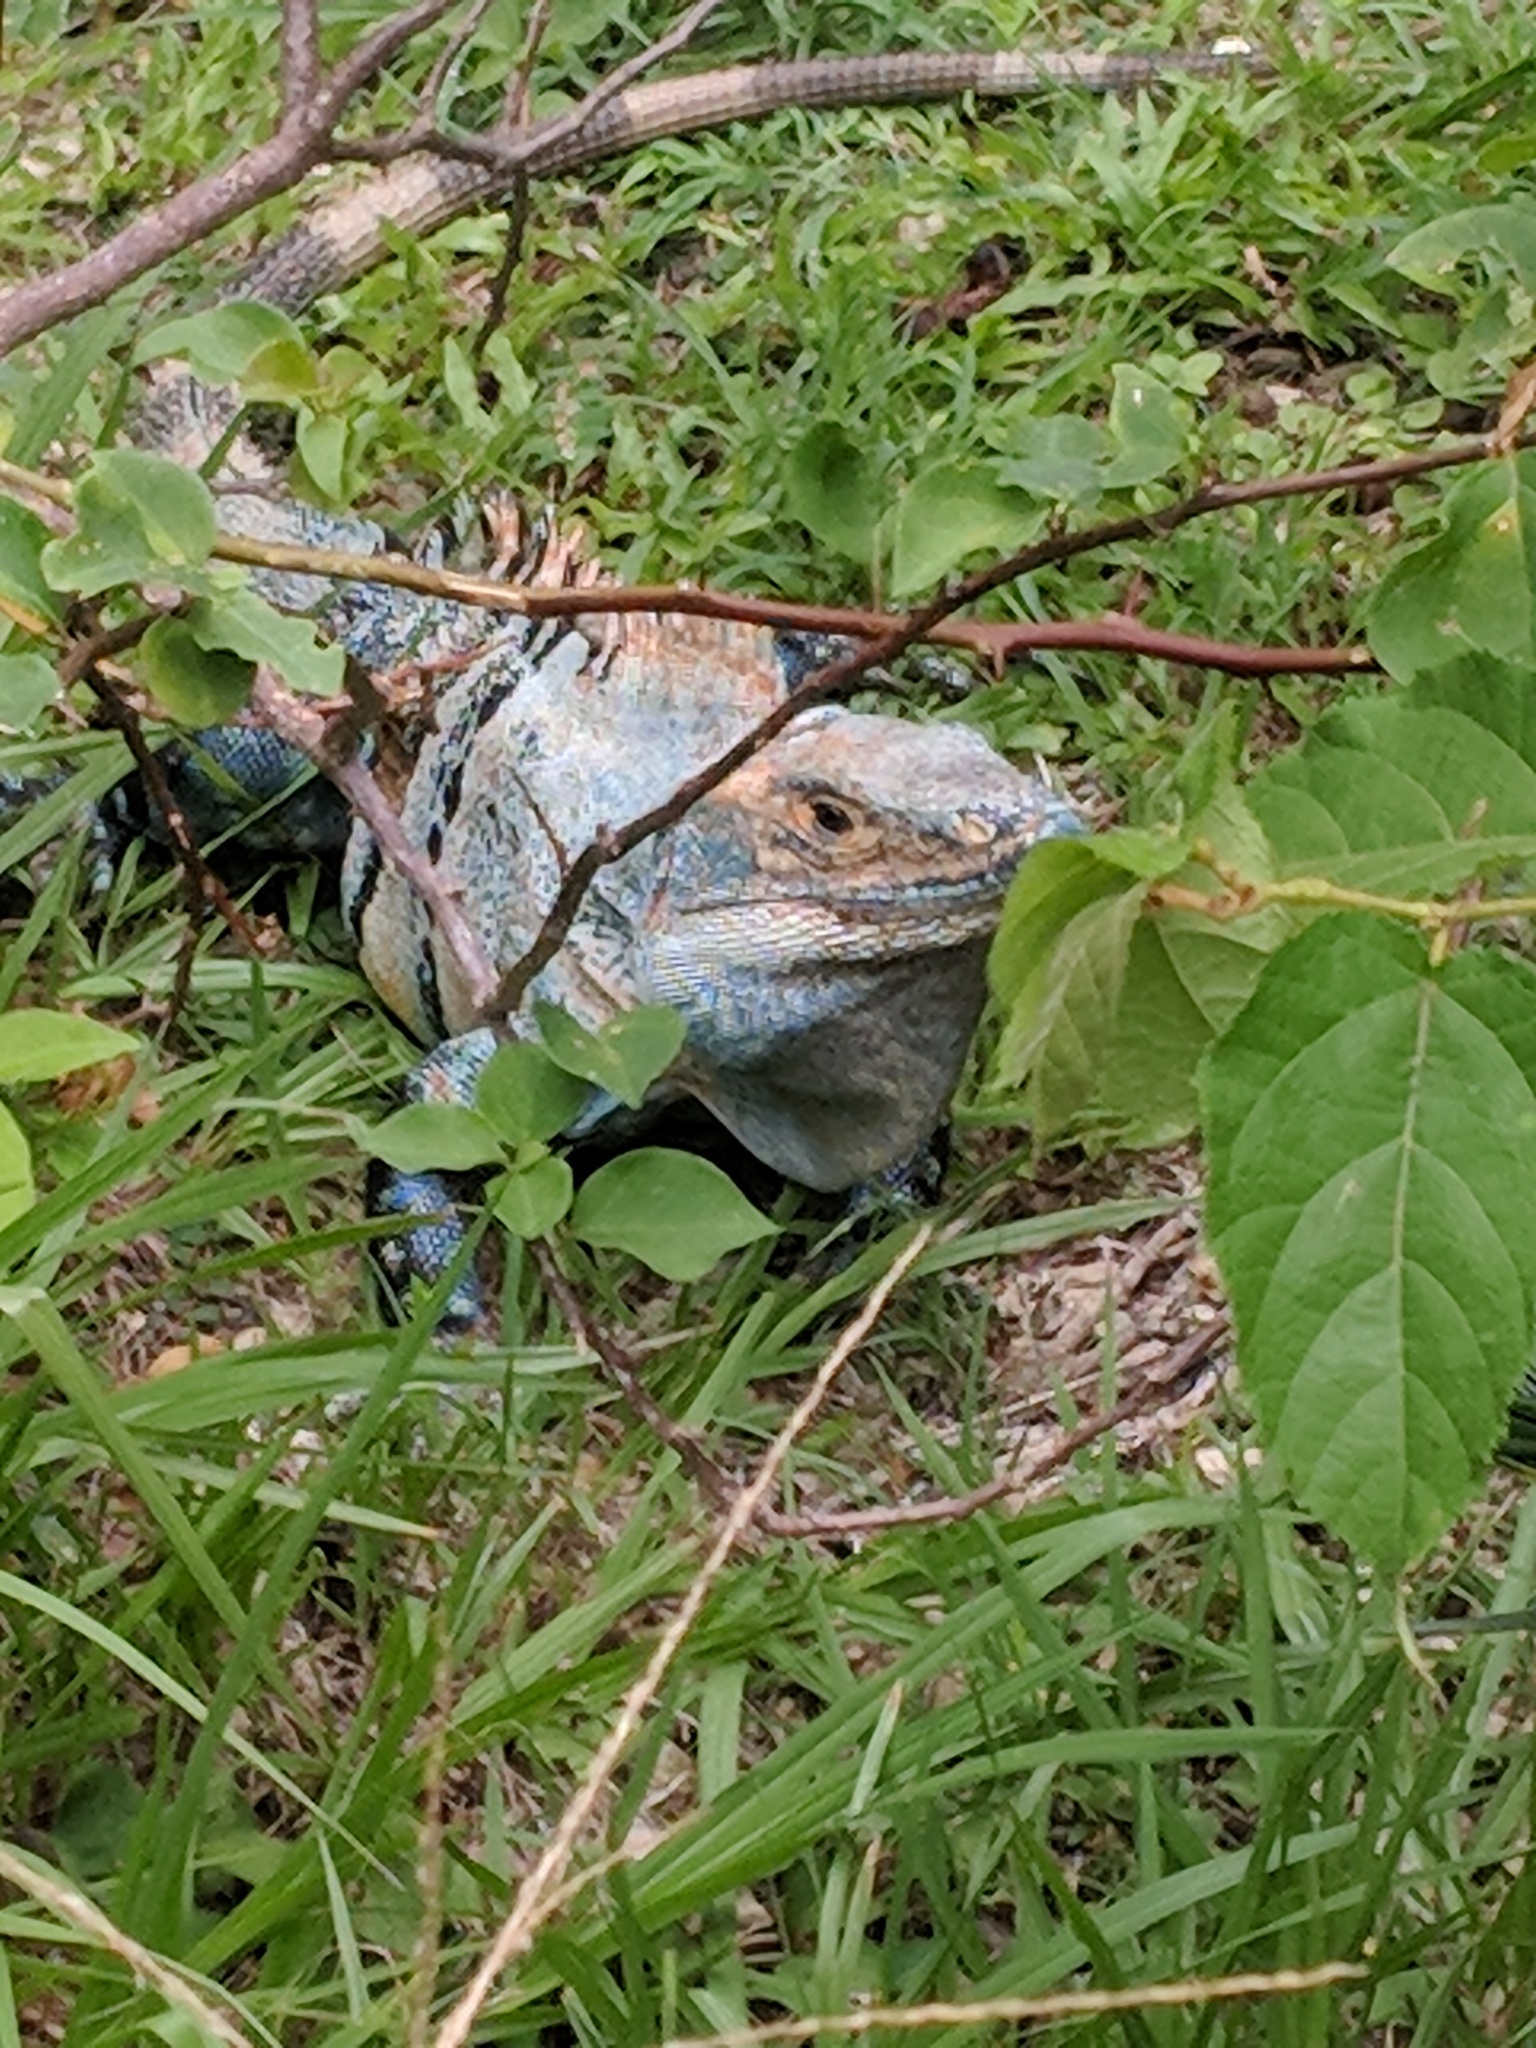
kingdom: Animalia
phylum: Chordata
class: Squamata
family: Iguanidae
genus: Ctenosaura
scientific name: Ctenosaura similis
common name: Black spiny-tailed iguana
